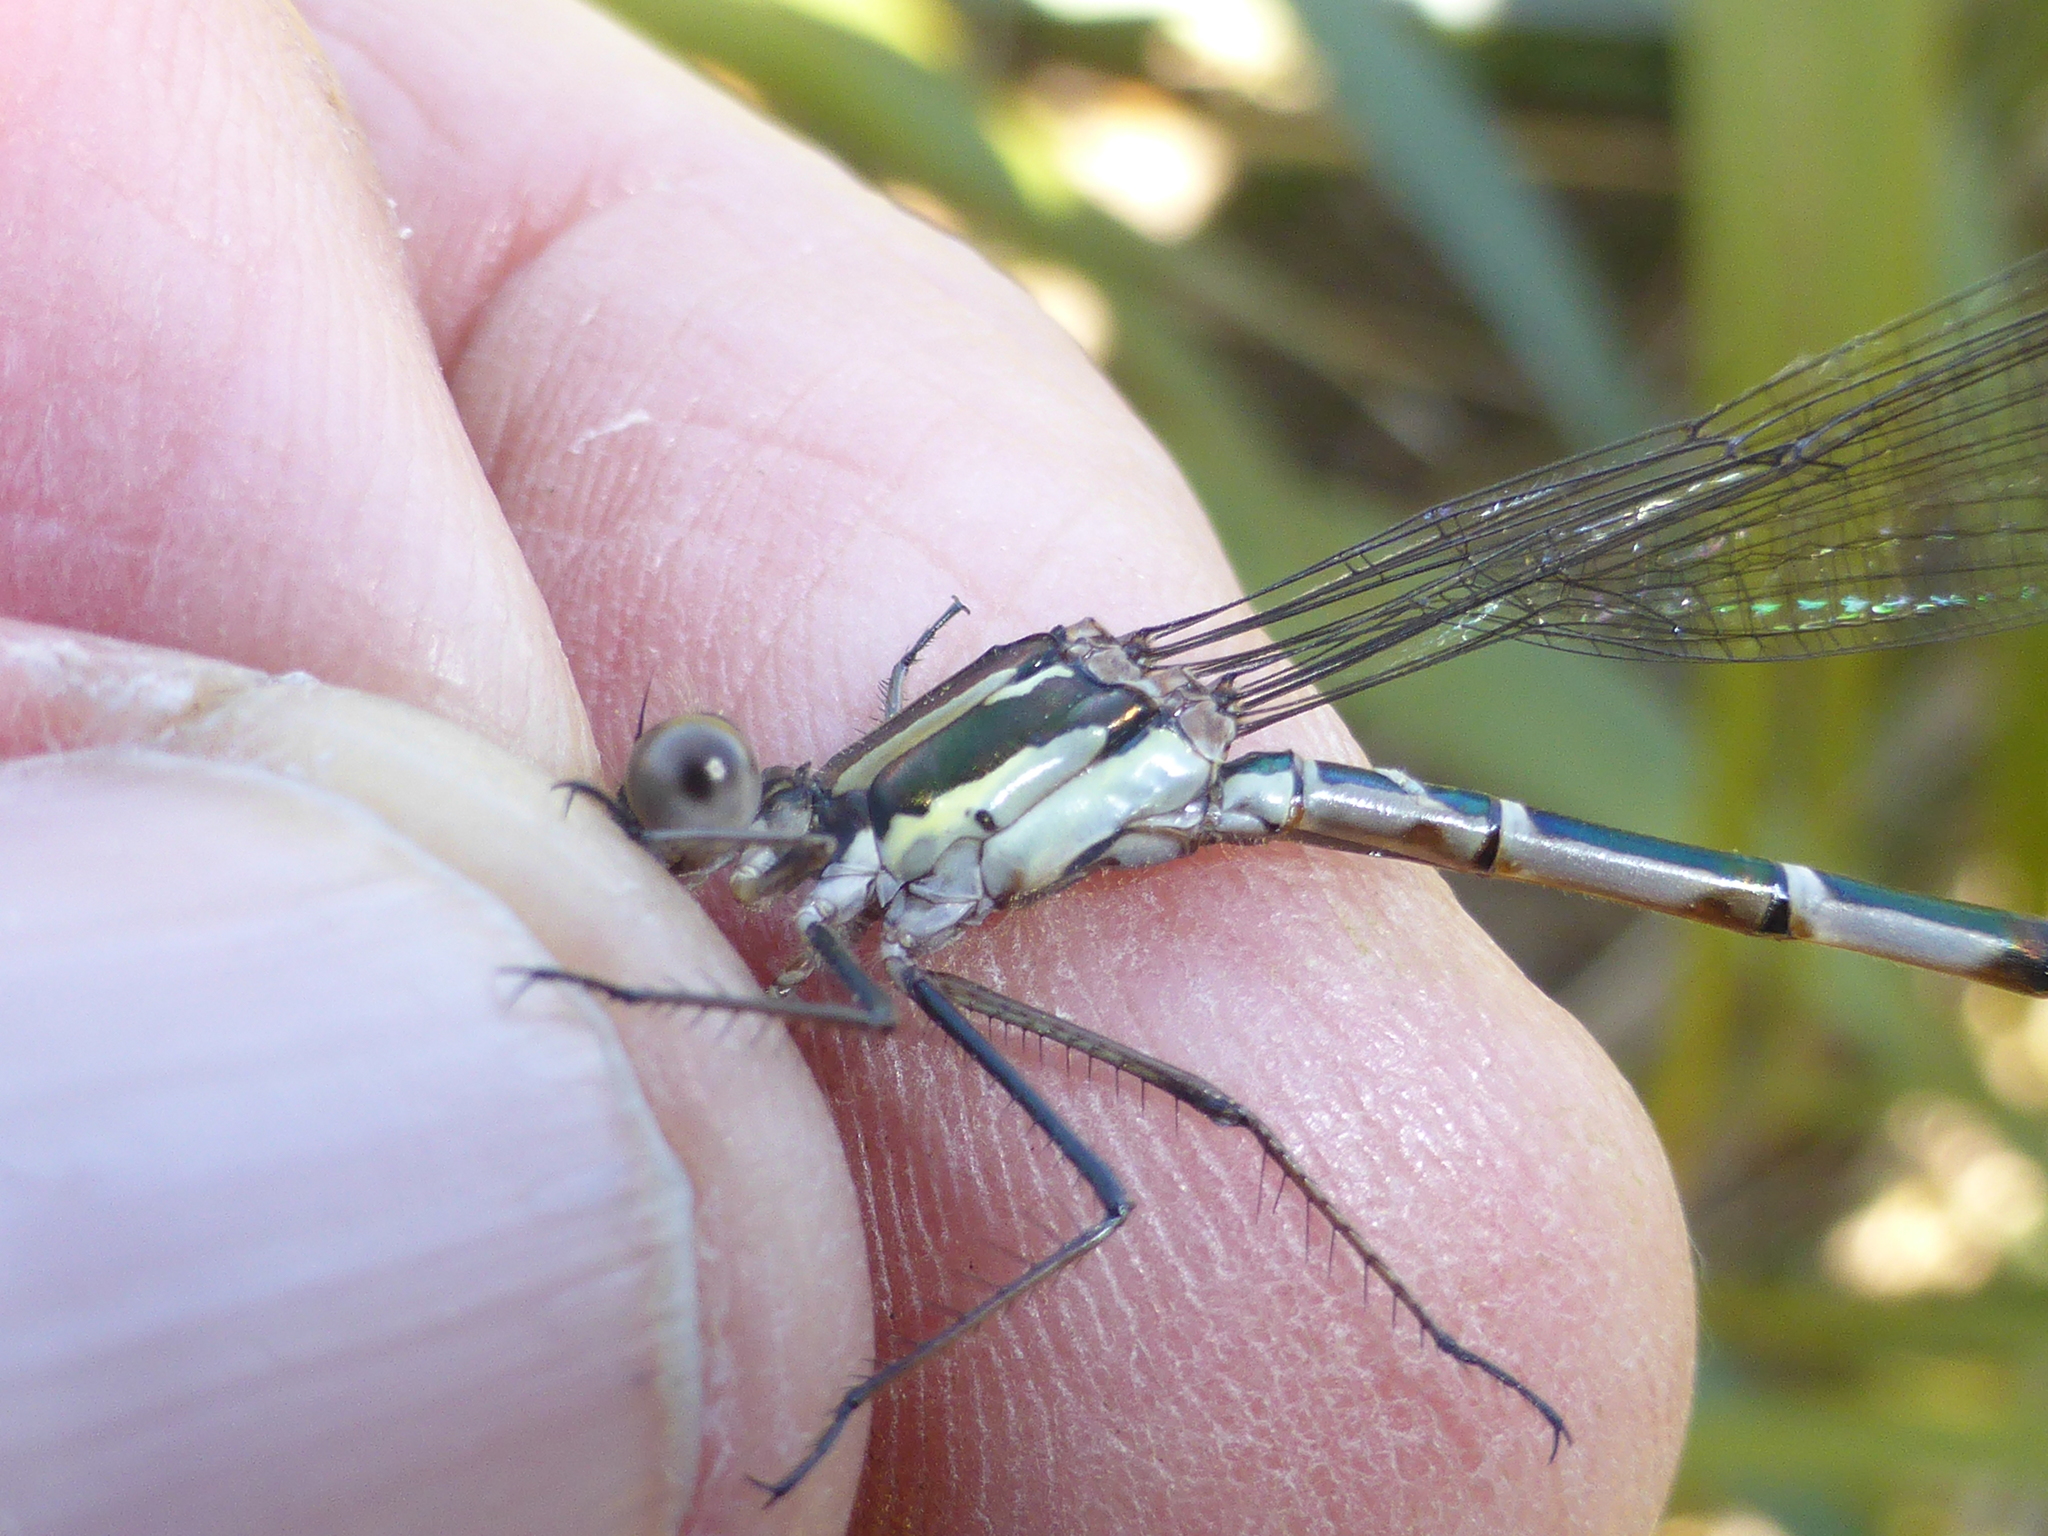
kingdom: Animalia
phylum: Arthropoda
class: Insecta
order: Odonata
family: Lestidae
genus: Austrolestes
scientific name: Austrolestes colensonis
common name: Blue damselfly
